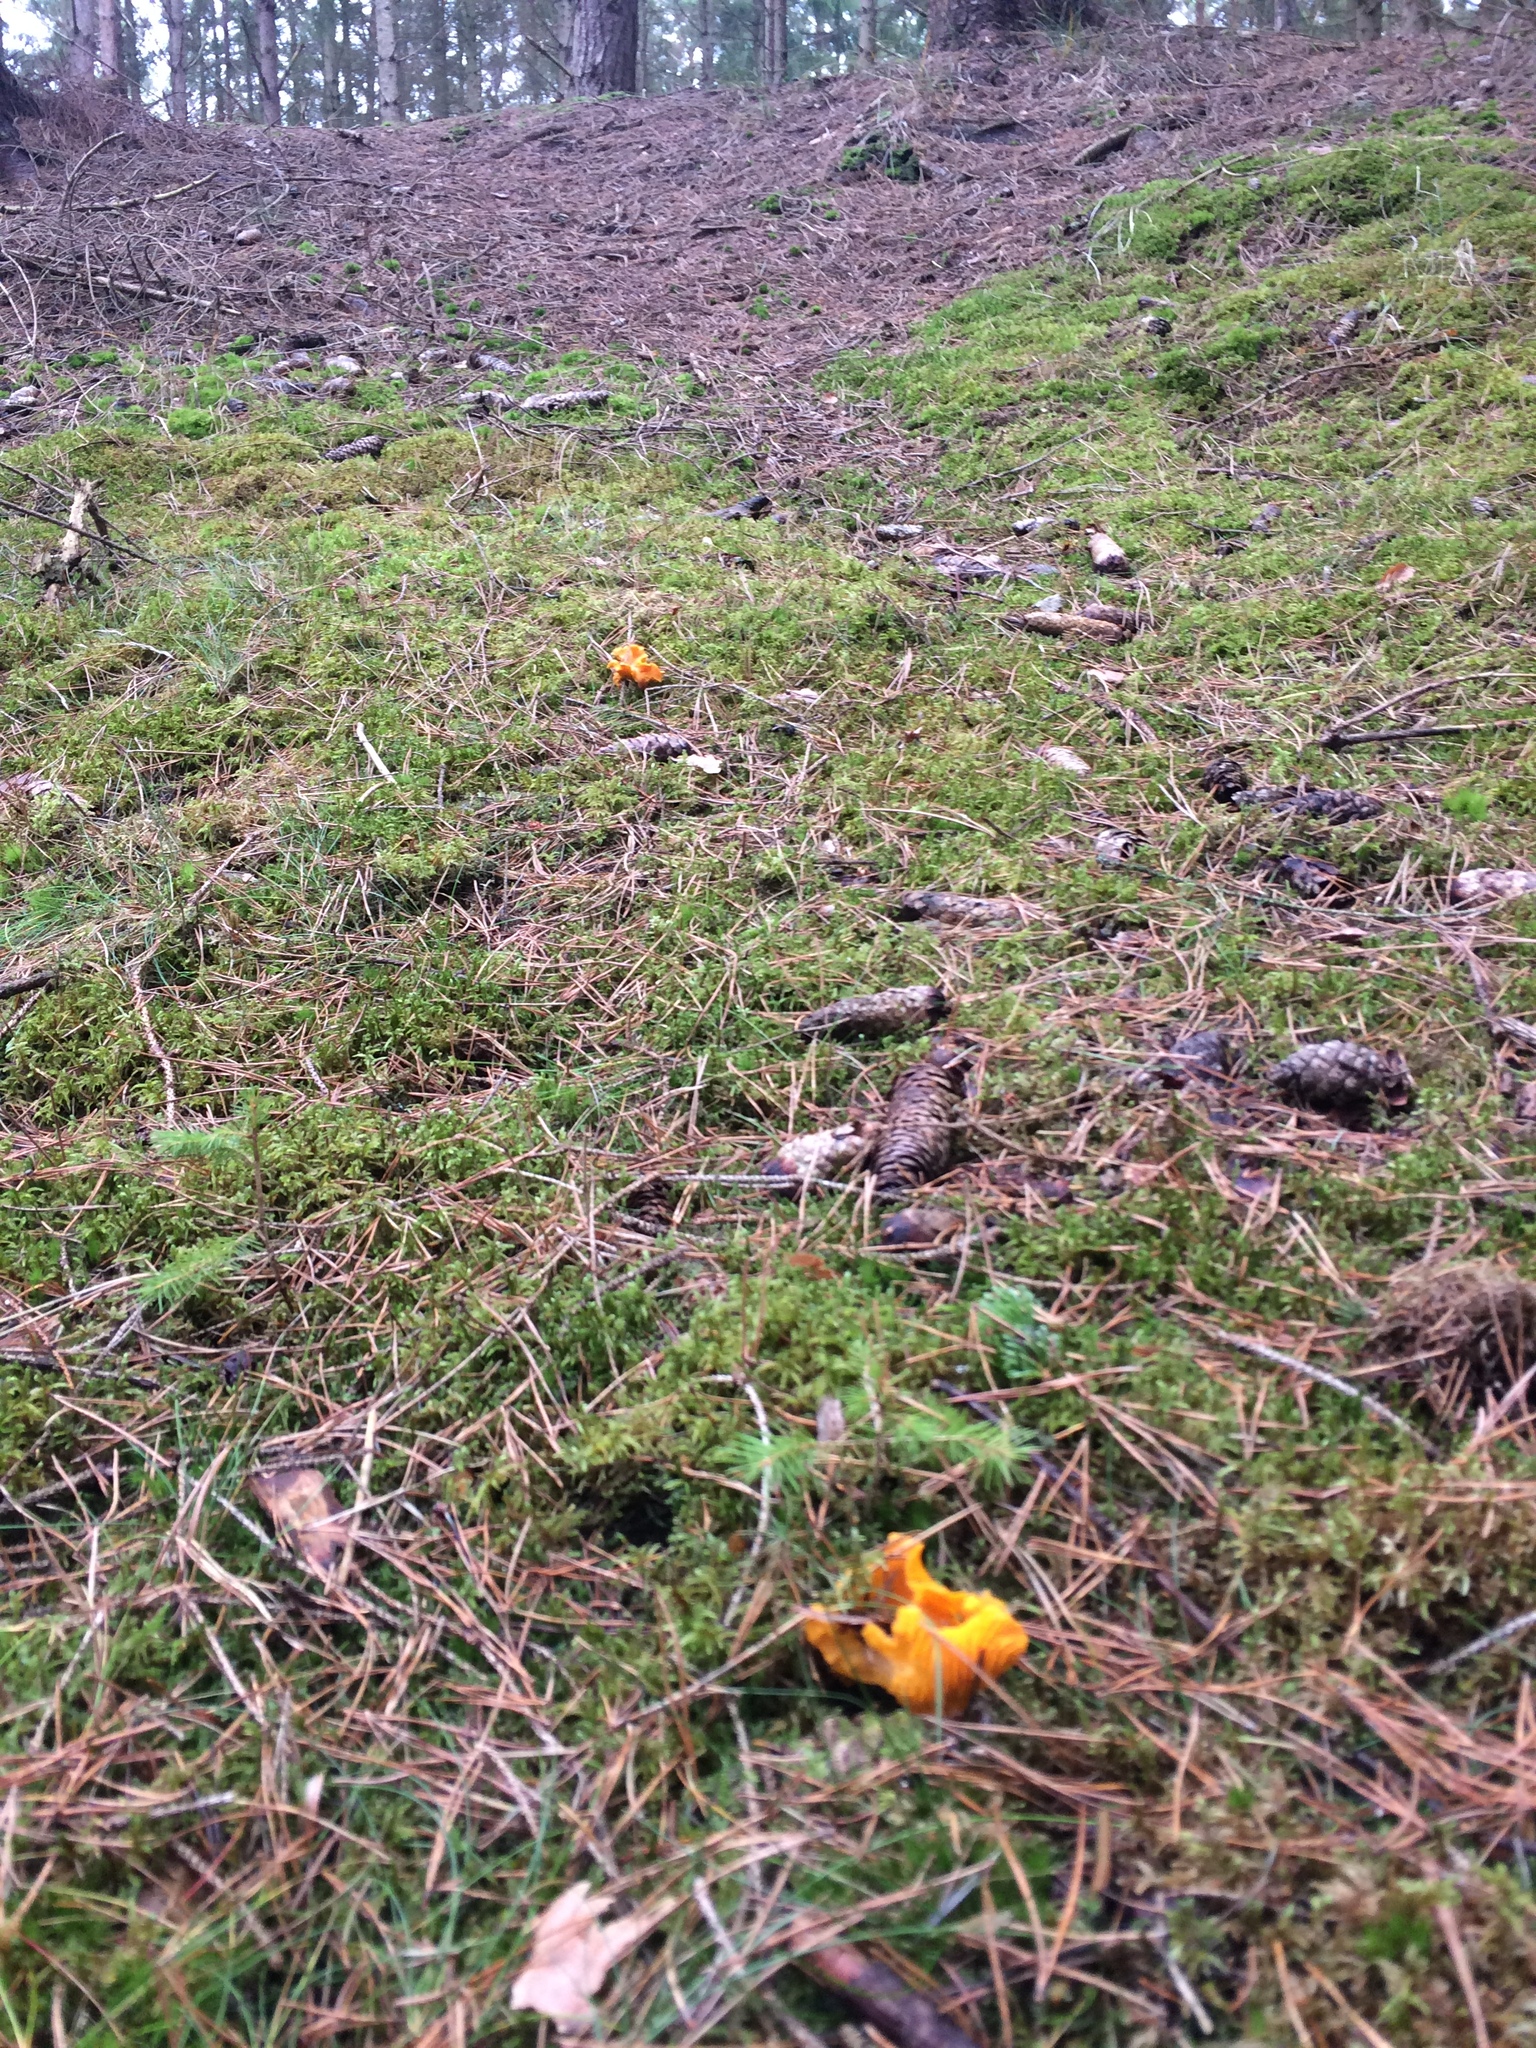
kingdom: Fungi
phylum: Basidiomycota
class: Agaricomycetes
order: Cantharellales
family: Hydnaceae
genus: Cantharellus
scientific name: Cantharellus cibarius
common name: Chanterelle
